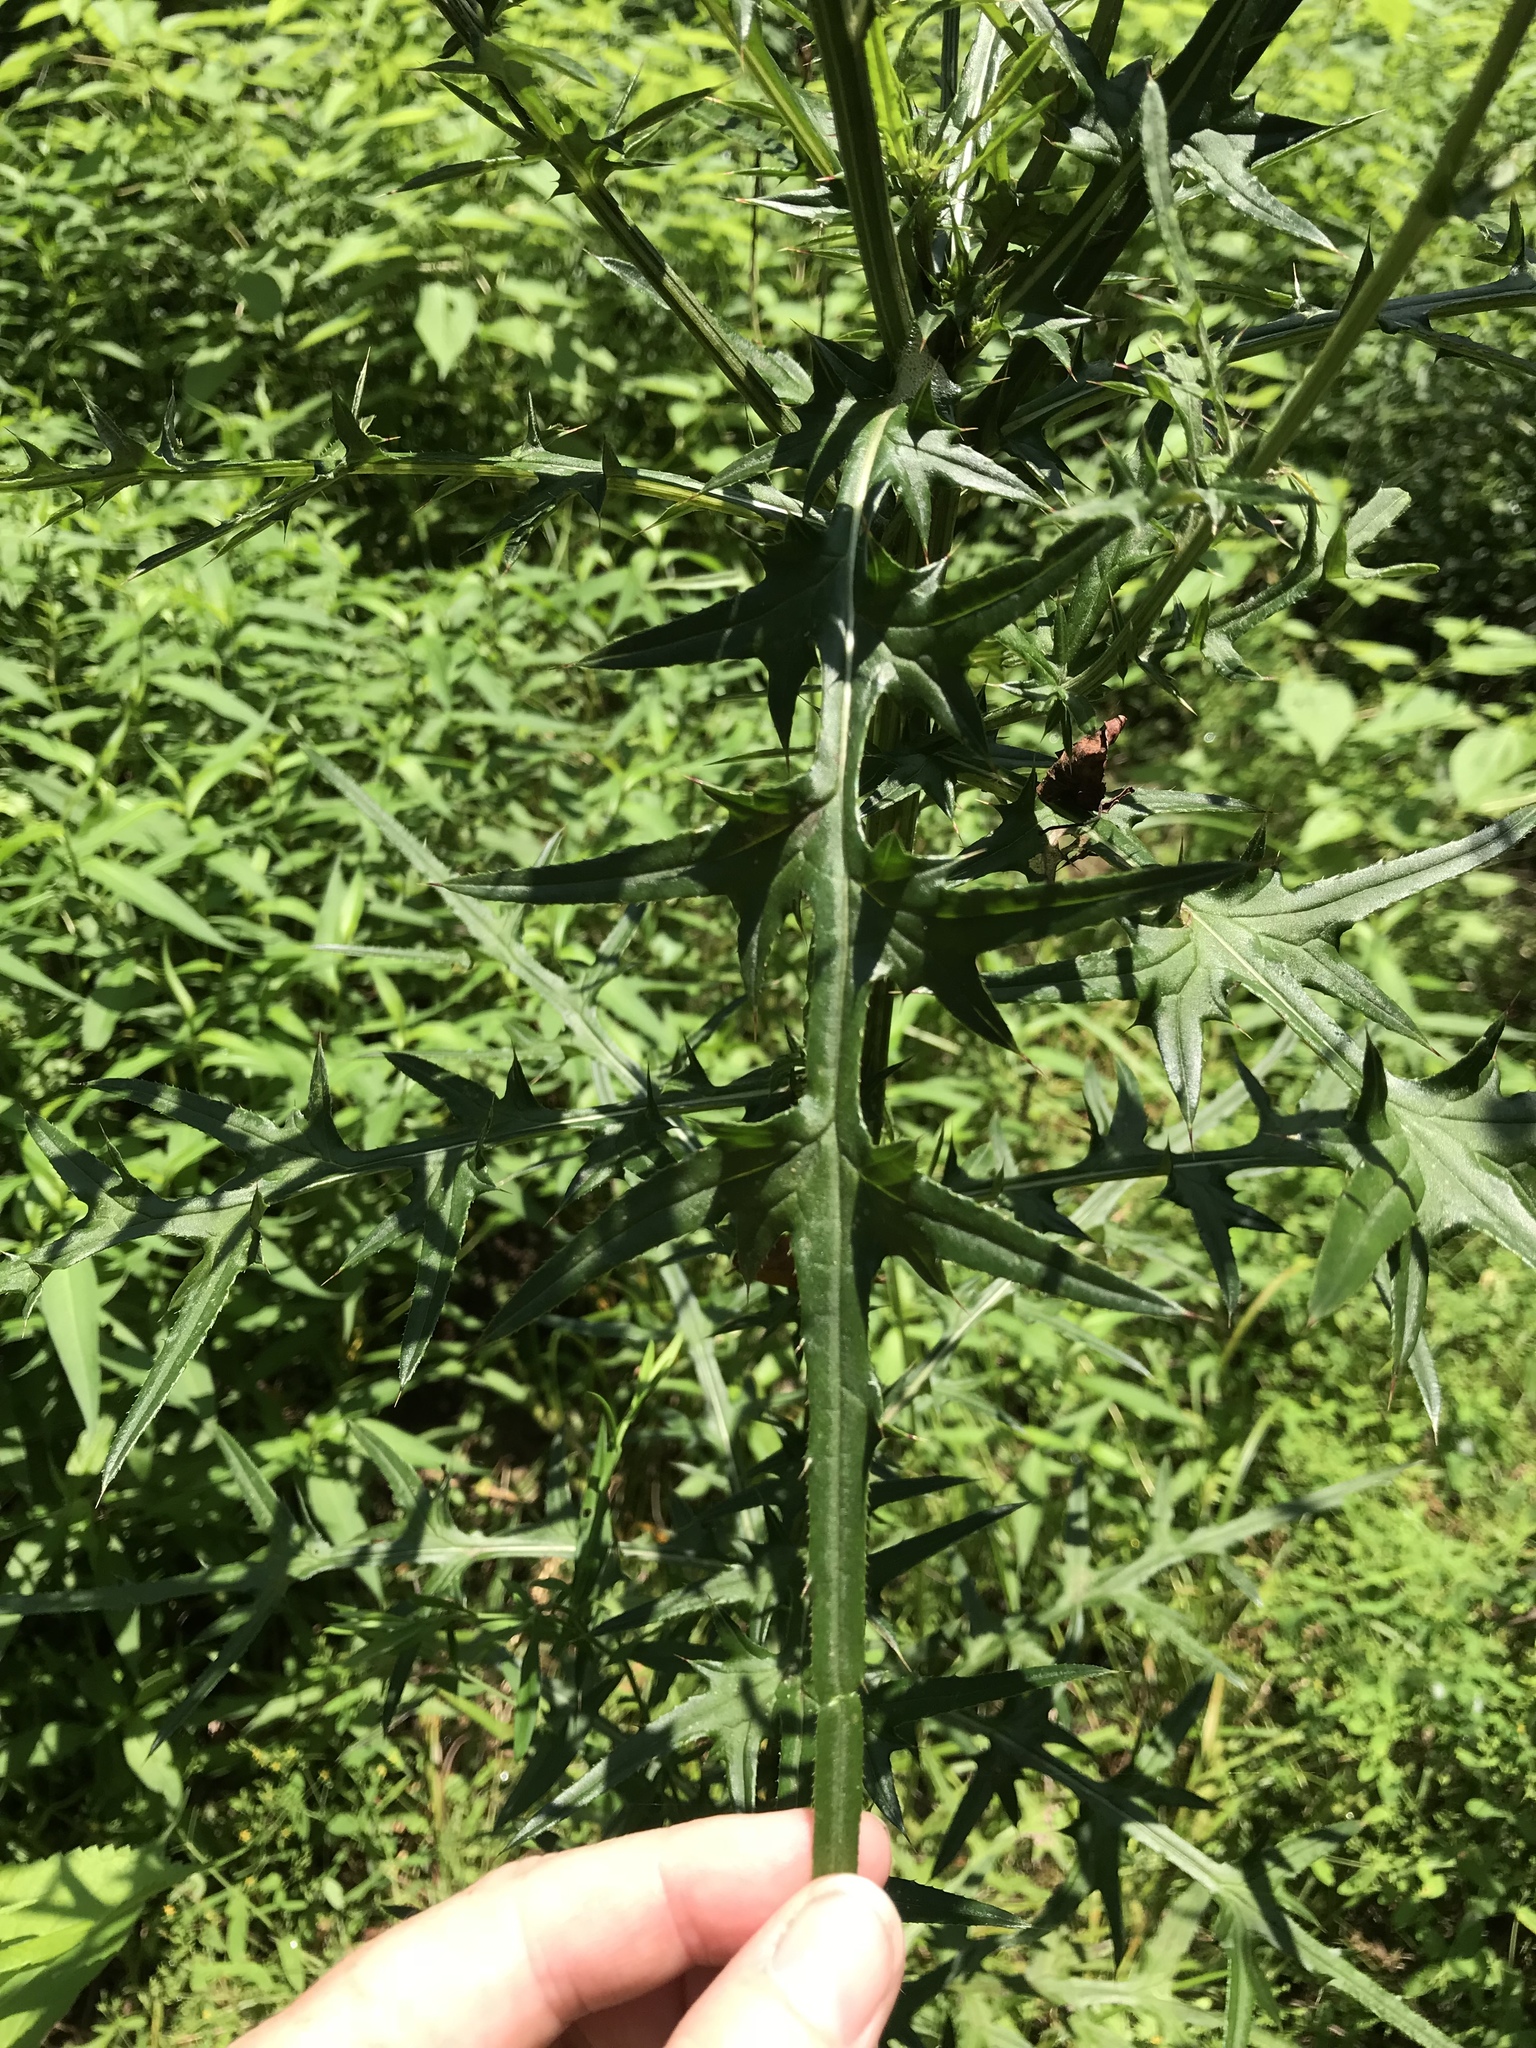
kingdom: Plantae
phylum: Tracheophyta
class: Magnoliopsida
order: Asterales
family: Asteraceae
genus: Cirsium
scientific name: Cirsium nuttalii
